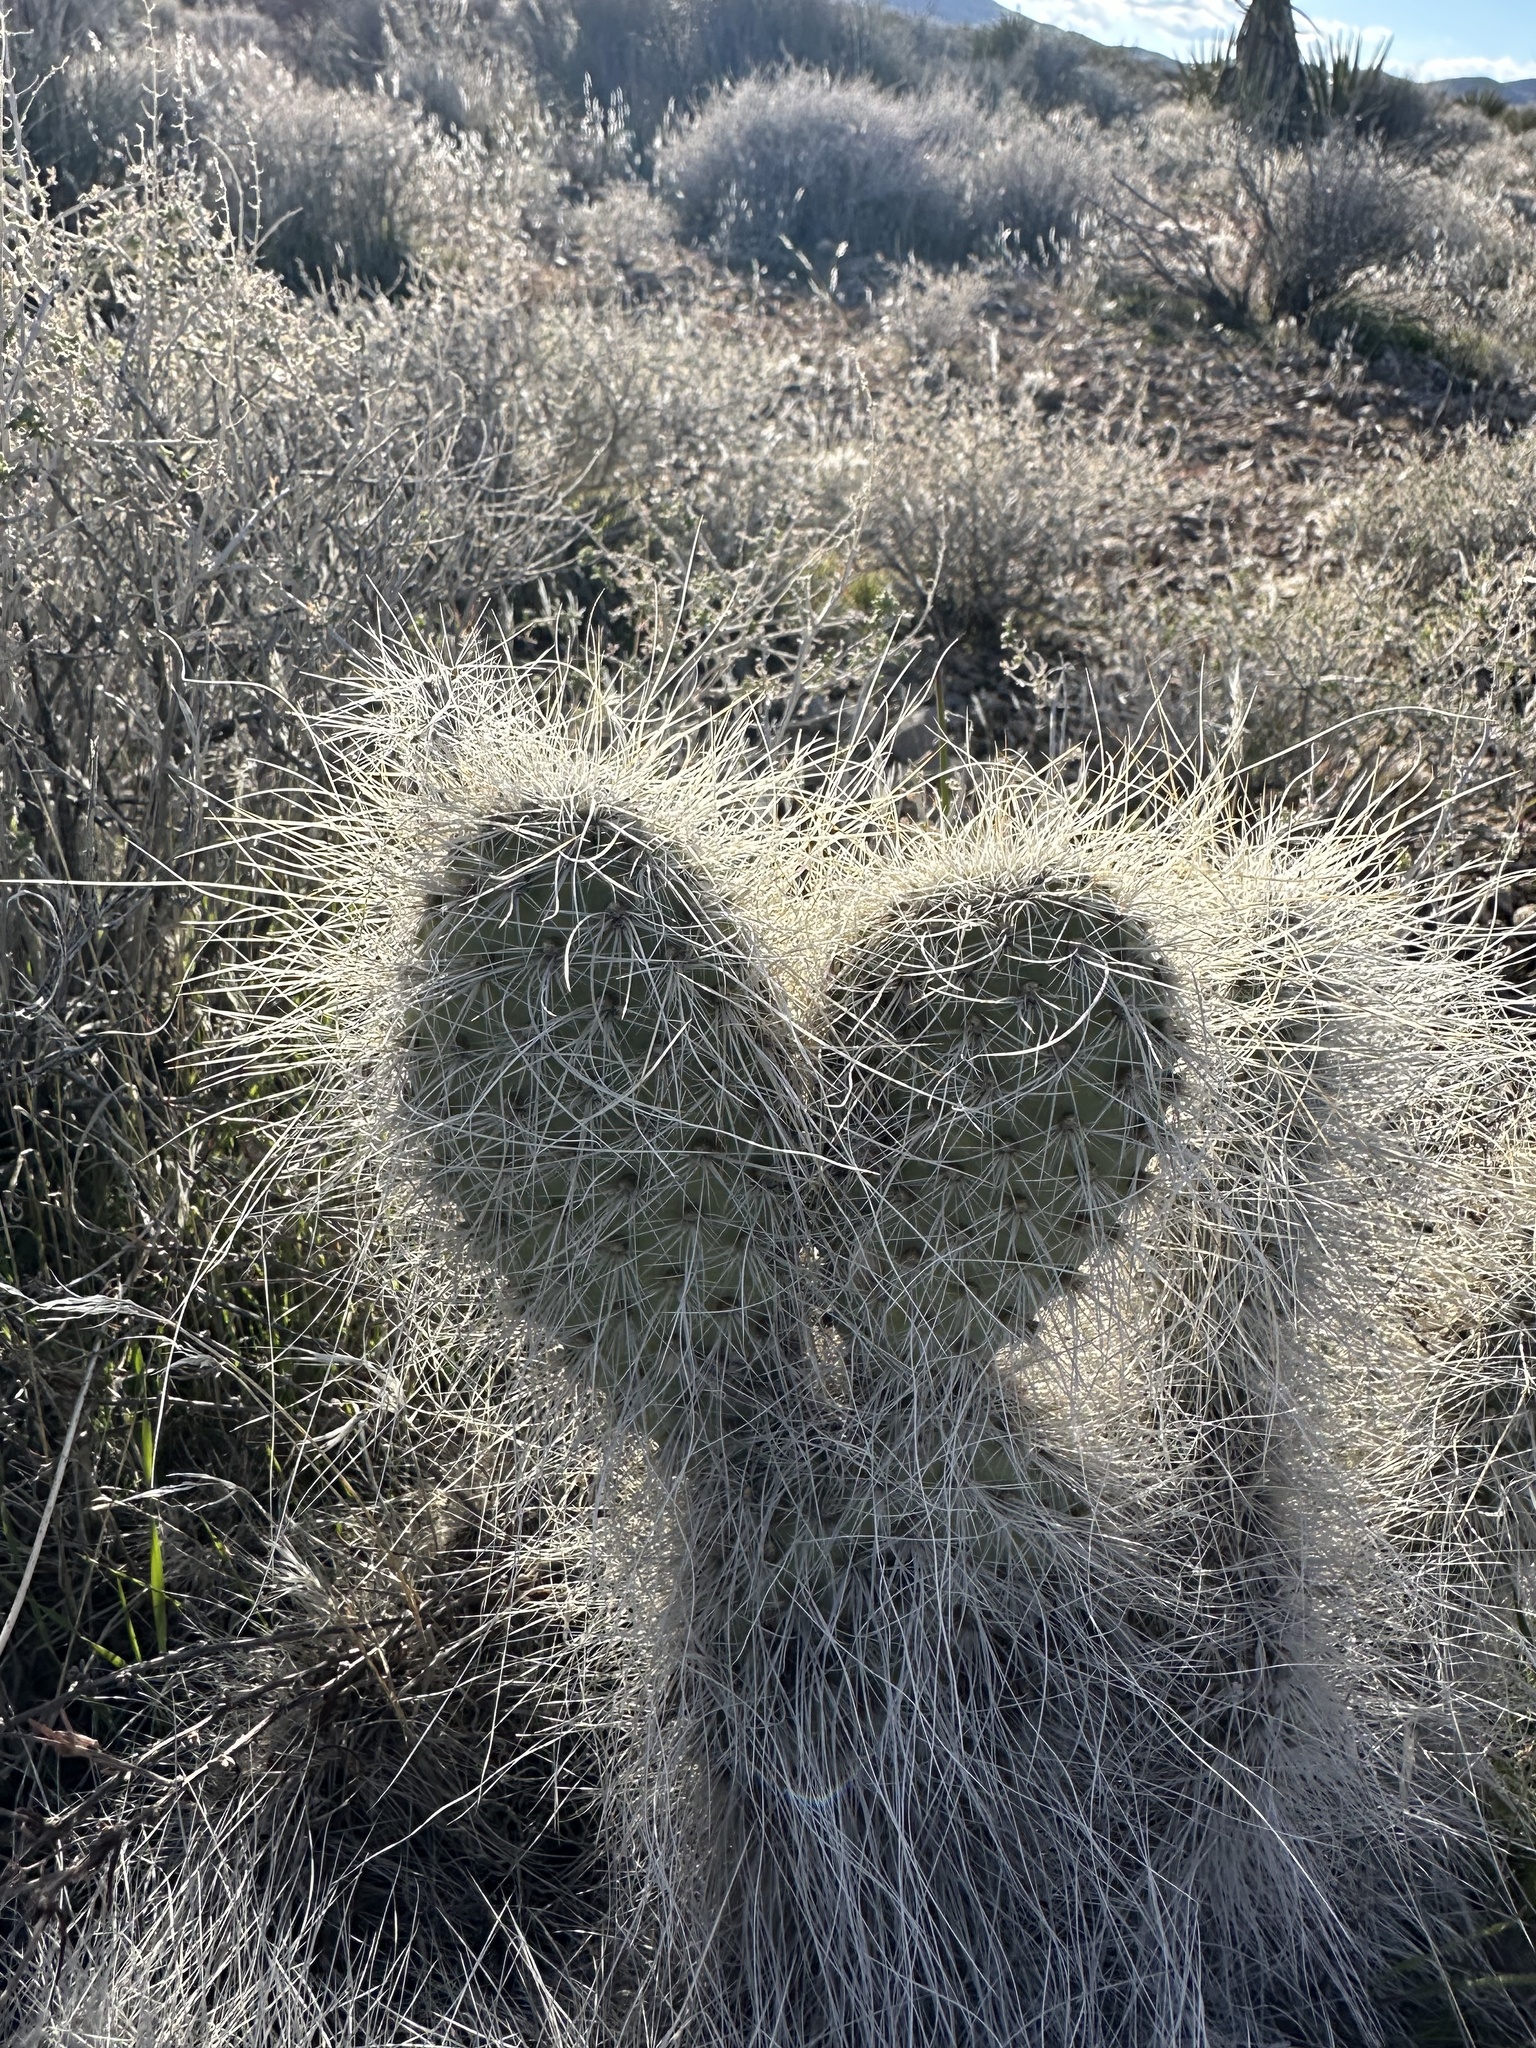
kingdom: Plantae
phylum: Tracheophyta
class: Magnoliopsida
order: Caryophyllales
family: Cactaceae
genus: Opuntia
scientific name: Opuntia polyacantha
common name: Plains prickly-pear
